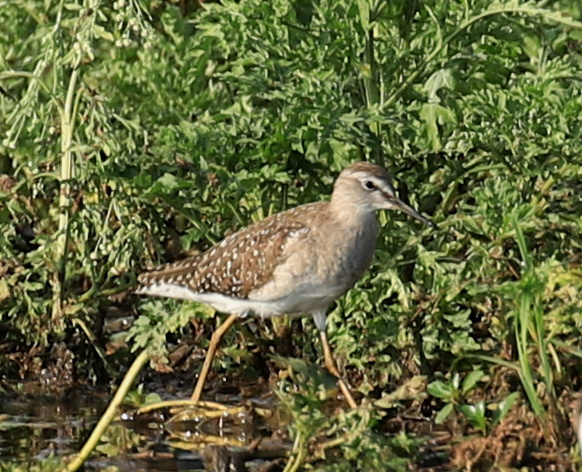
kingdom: Animalia
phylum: Chordata
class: Aves
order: Charadriiformes
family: Scolopacidae
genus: Tringa
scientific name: Tringa glareola
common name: Wood sandpiper
